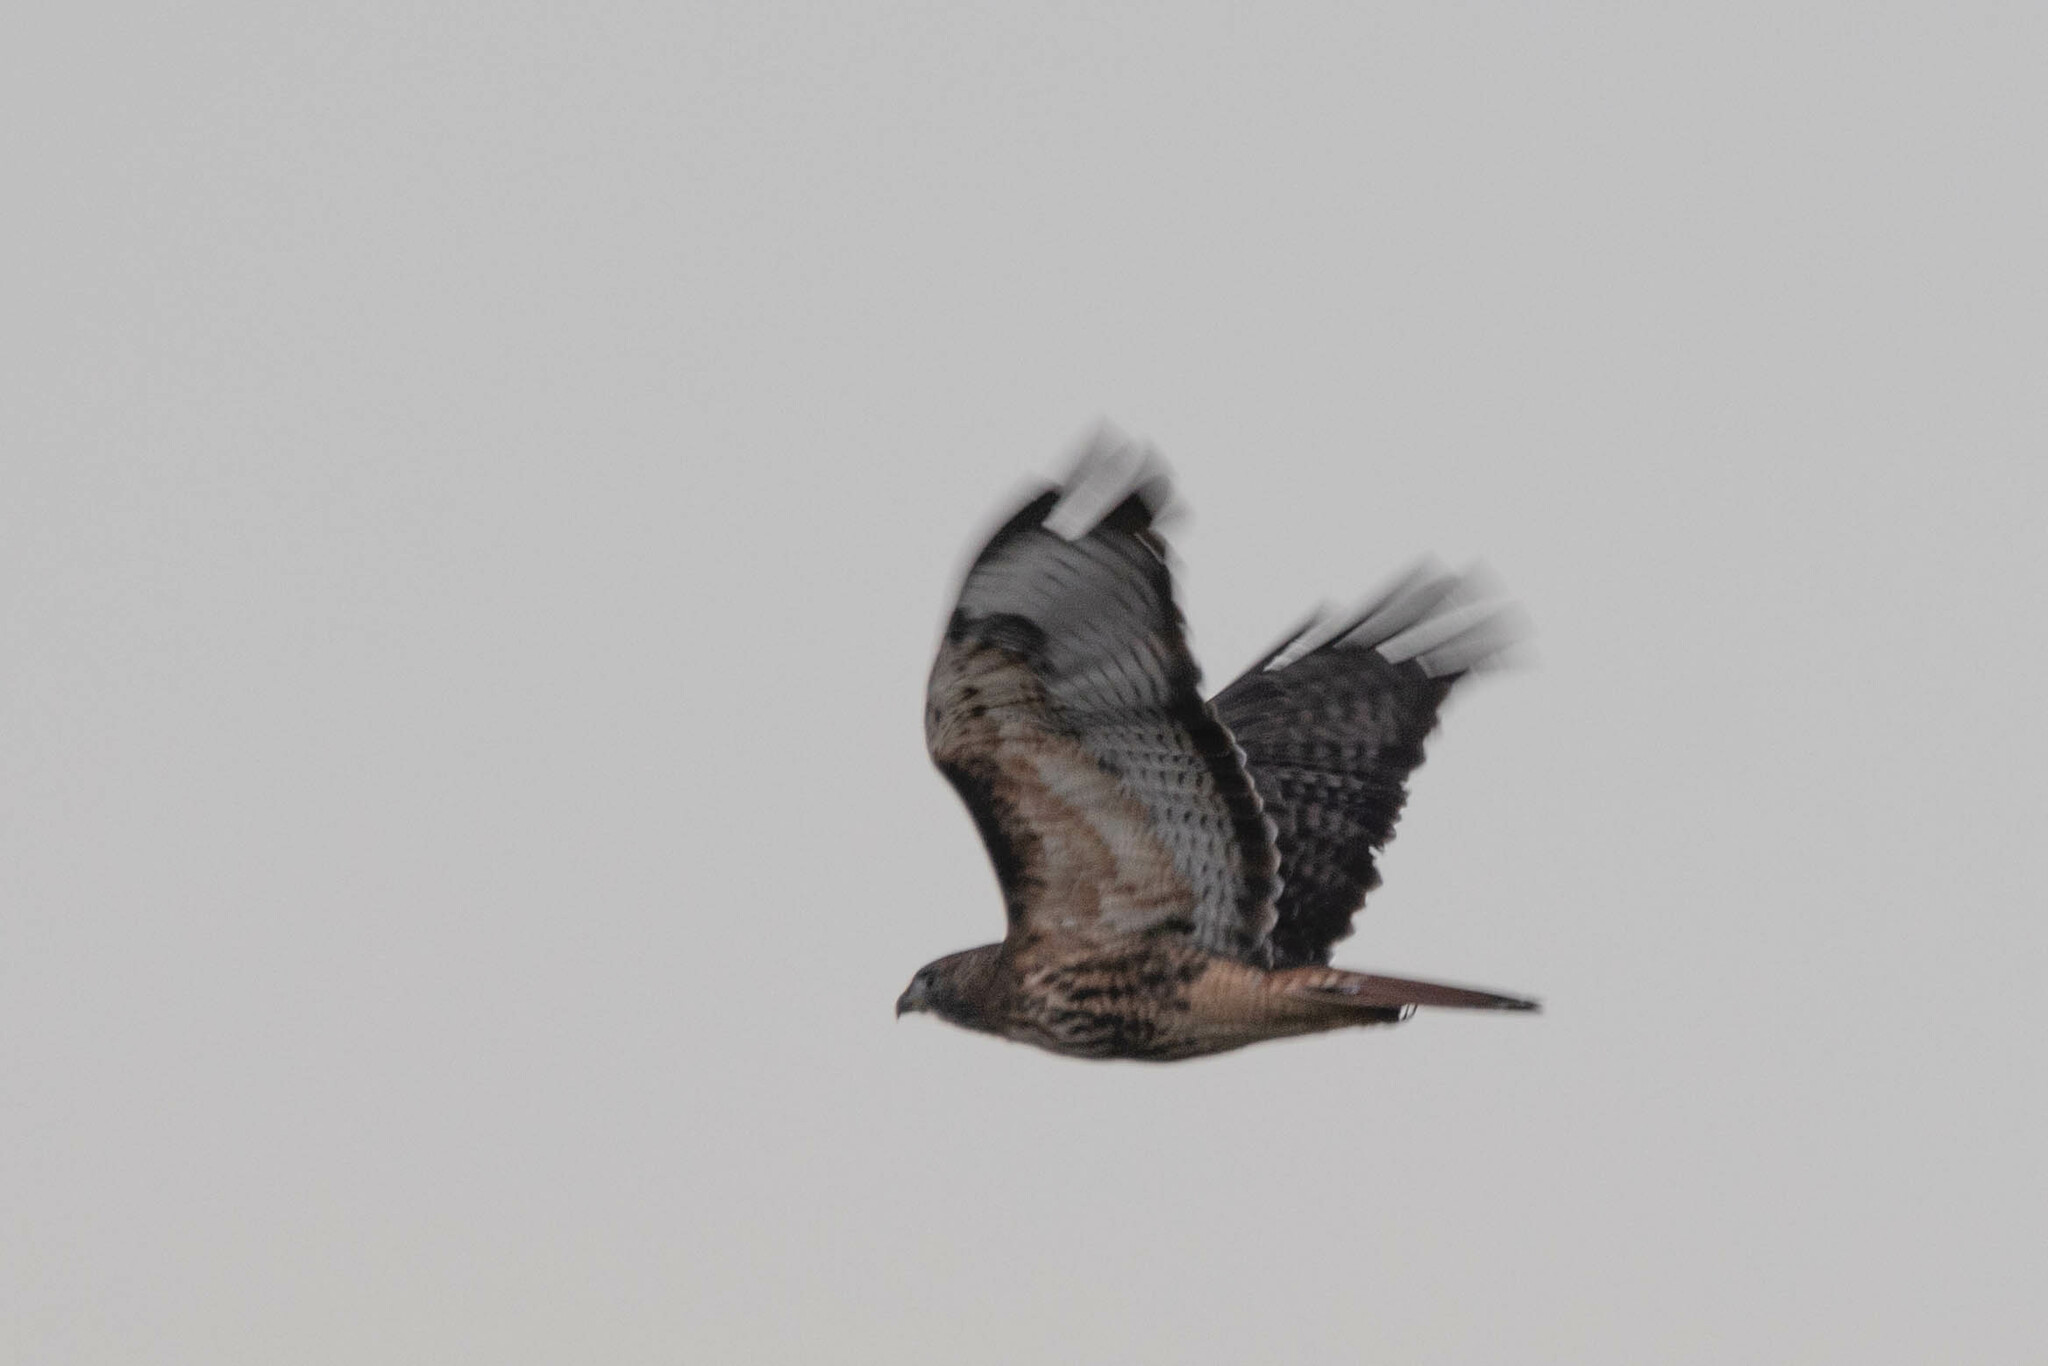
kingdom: Animalia
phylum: Chordata
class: Aves
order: Accipitriformes
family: Accipitridae
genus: Buteo
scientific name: Buteo jamaicensis
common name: Red-tailed hawk
